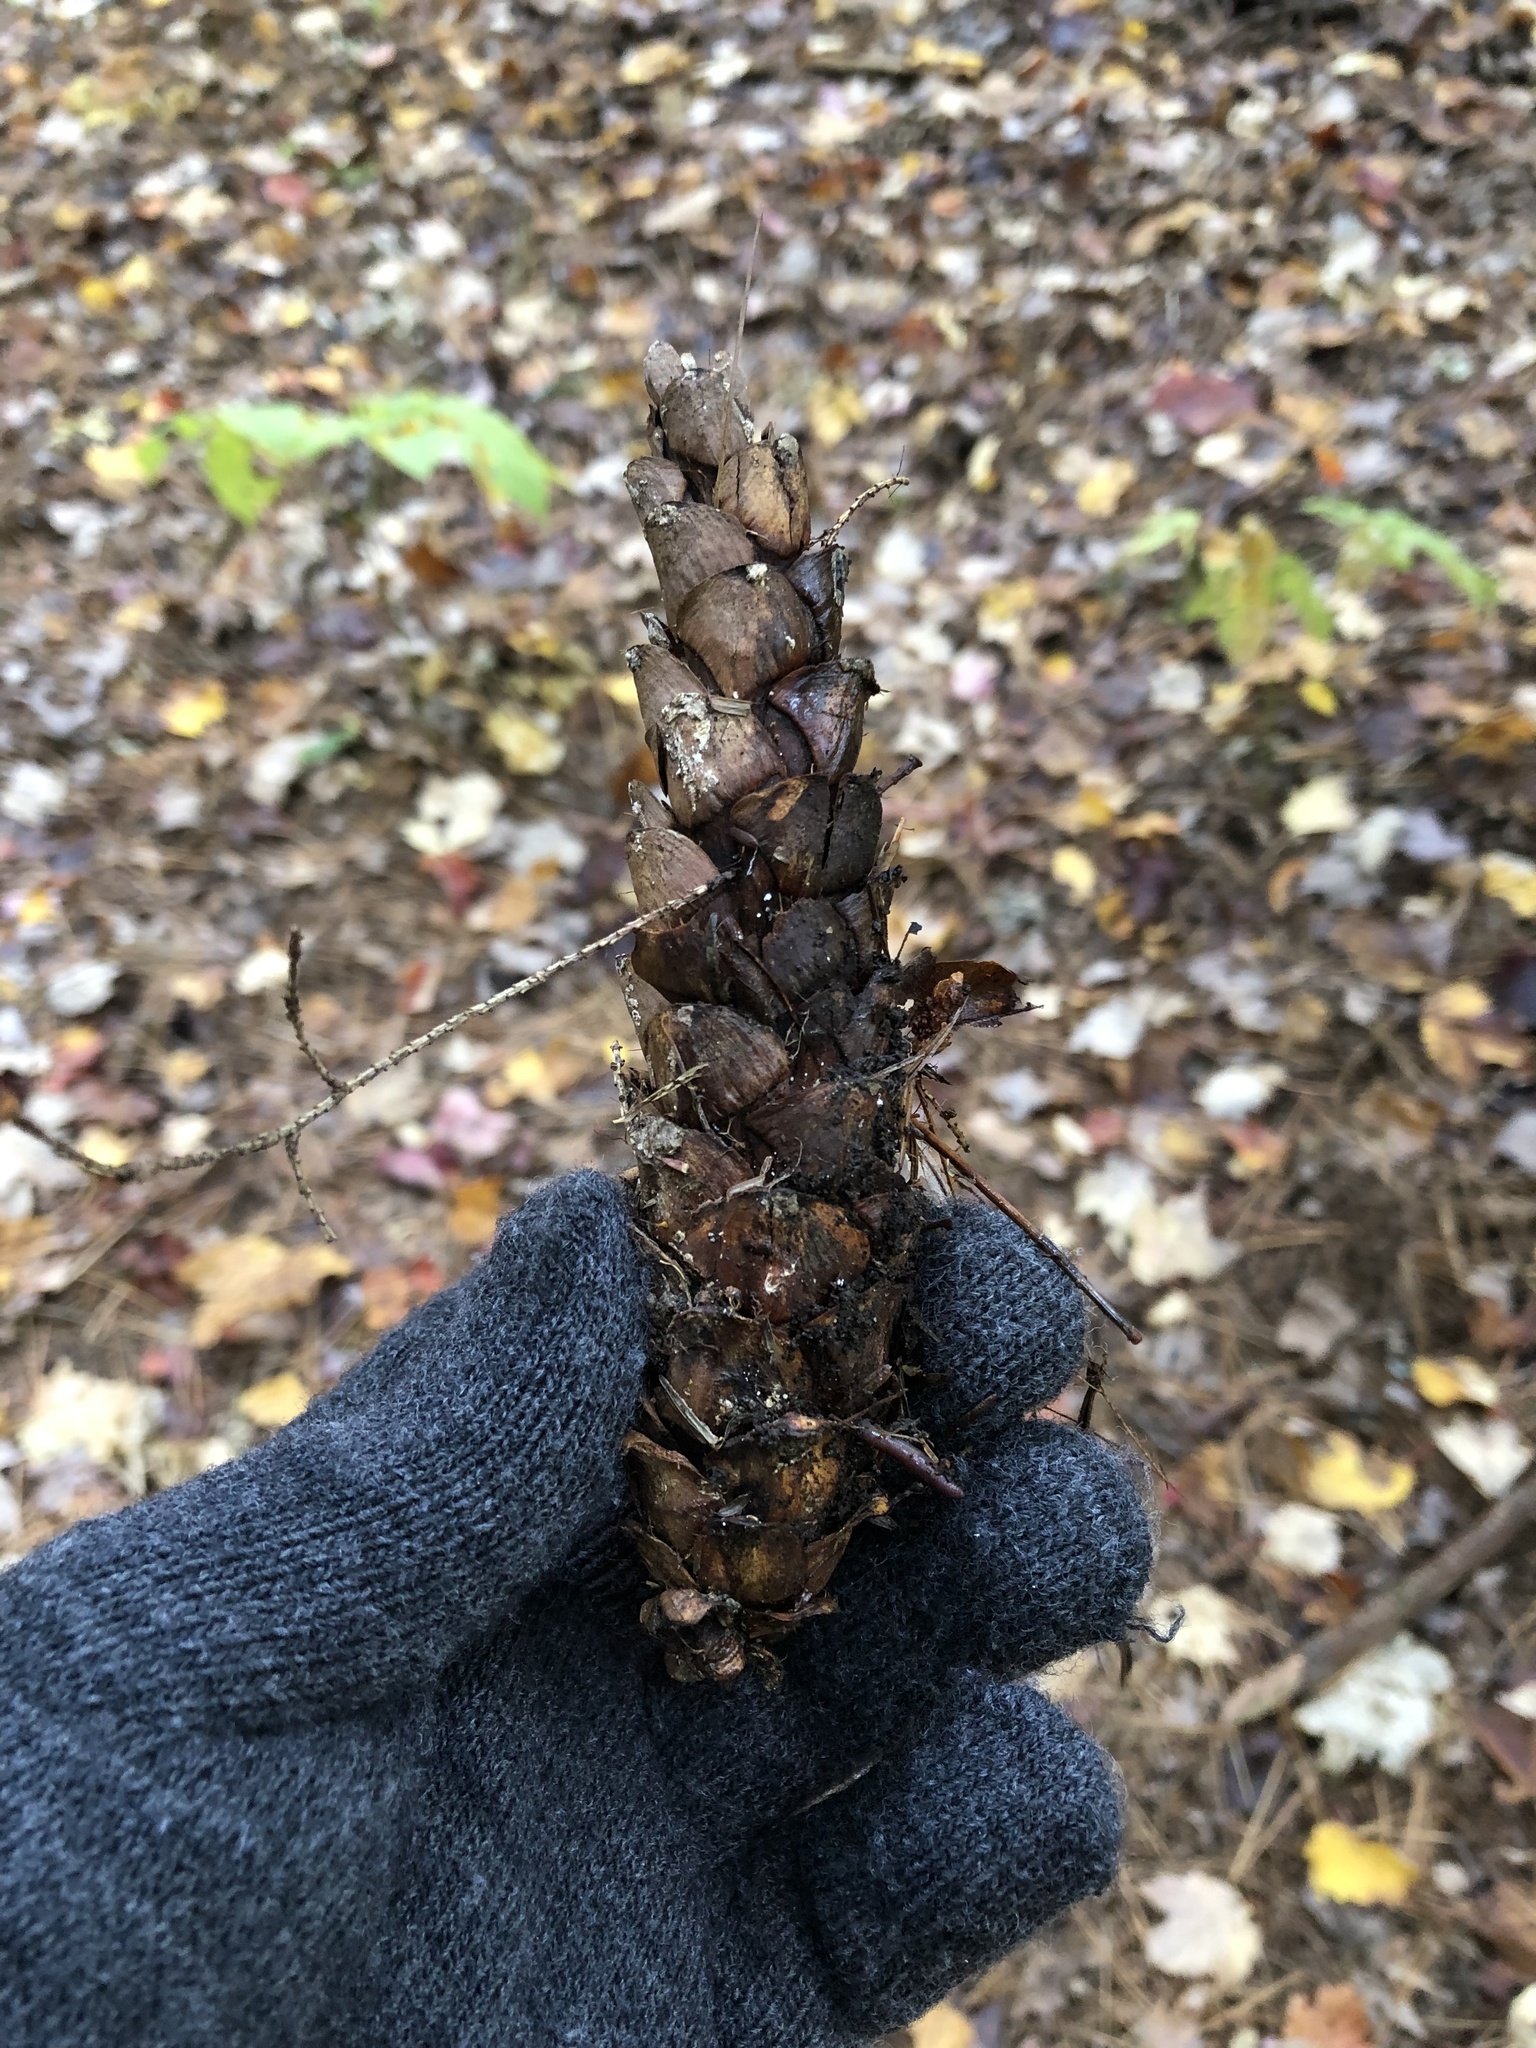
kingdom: Plantae
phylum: Tracheophyta
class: Pinopsida
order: Pinales
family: Pinaceae
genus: Pinus
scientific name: Pinus strobus
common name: Weymouth pine
